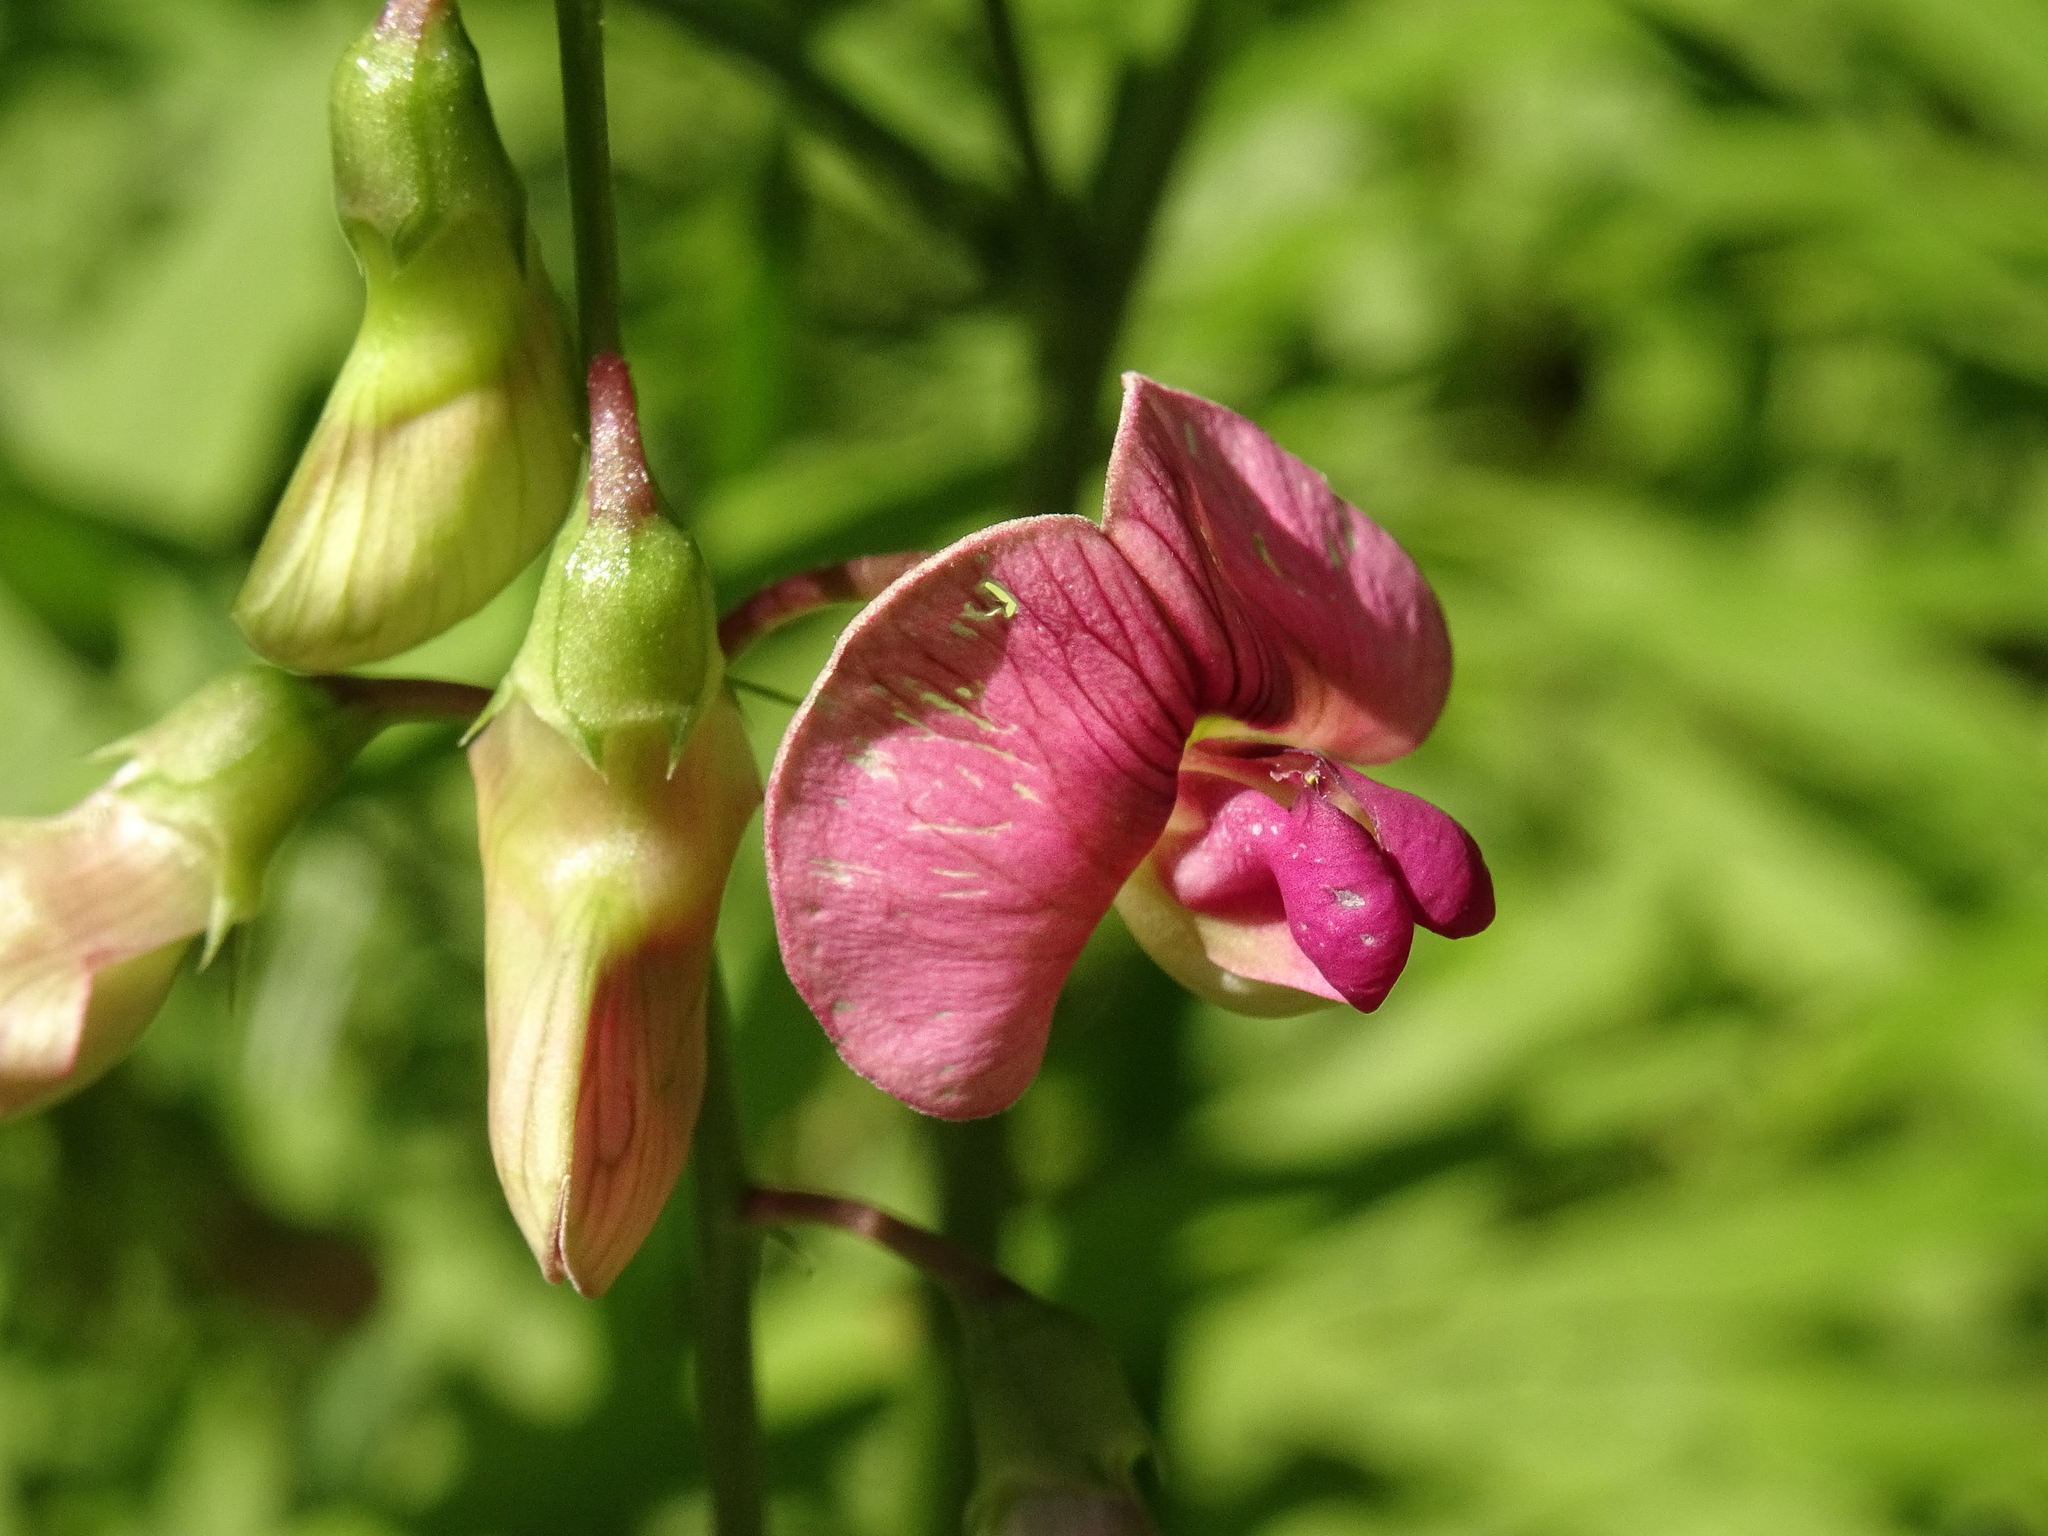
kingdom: Plantae
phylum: Tracheophyta
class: Magnoliopsida
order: Fabales
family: Fabaceae
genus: Lathyrus
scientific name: Lathyrus sylvestris
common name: Flat pea
